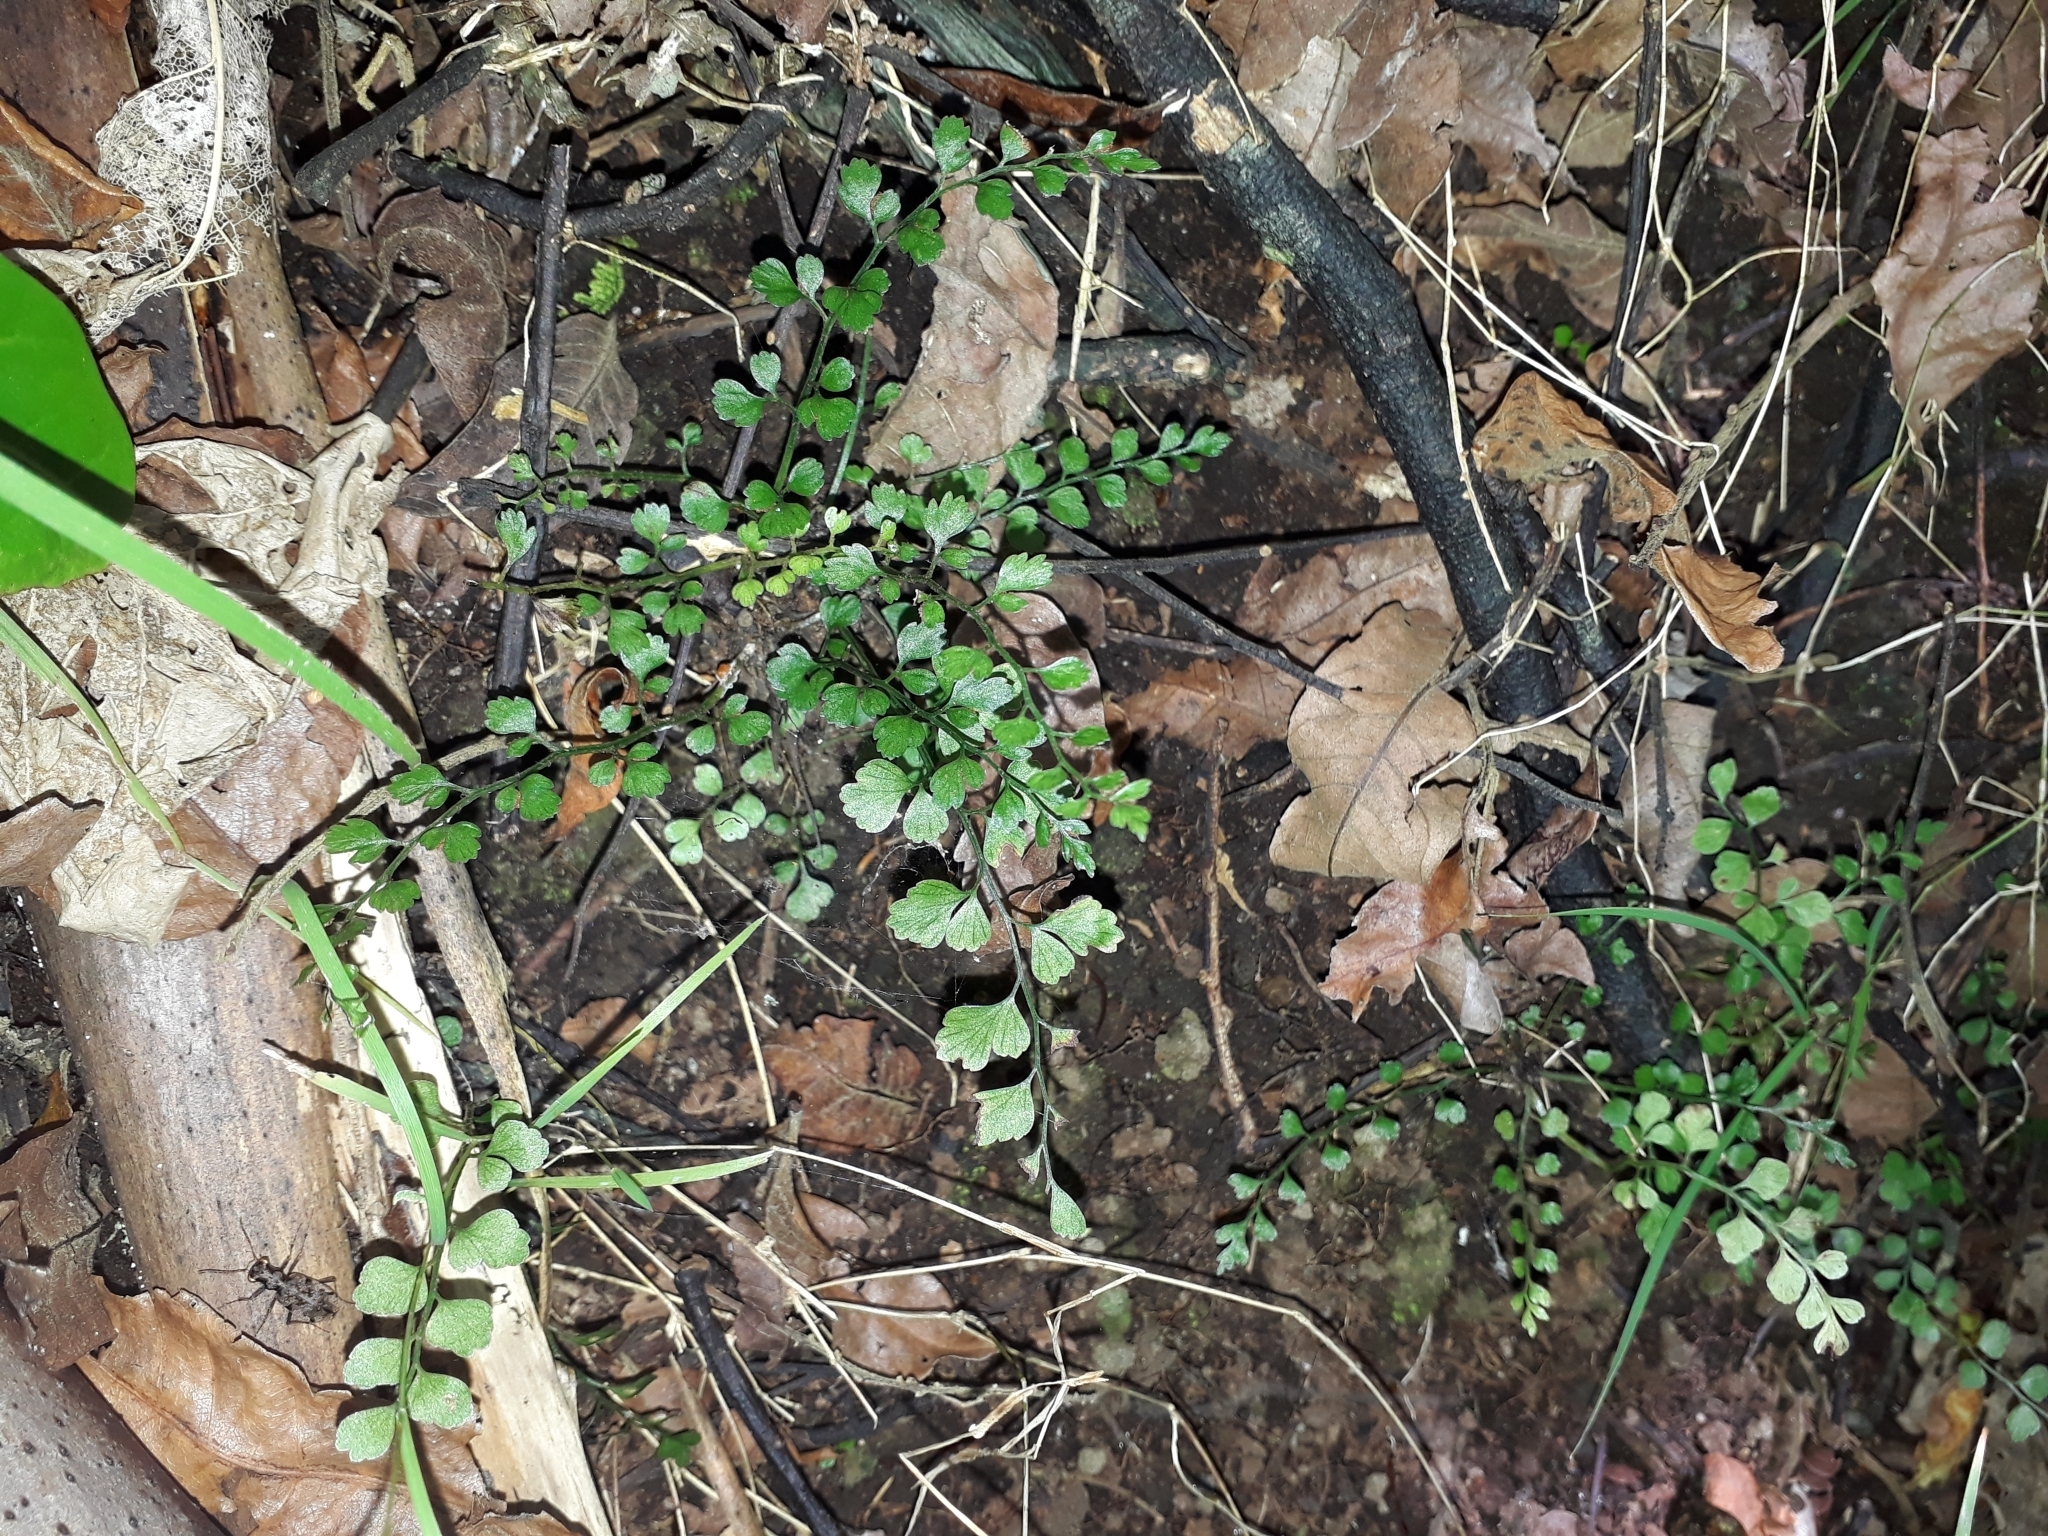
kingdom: Plantae
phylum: Tracheophyta
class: Polypodiopsida
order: Polypodiales
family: Aspleniaceae
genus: Asplenium
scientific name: Asplenium hookerianum
